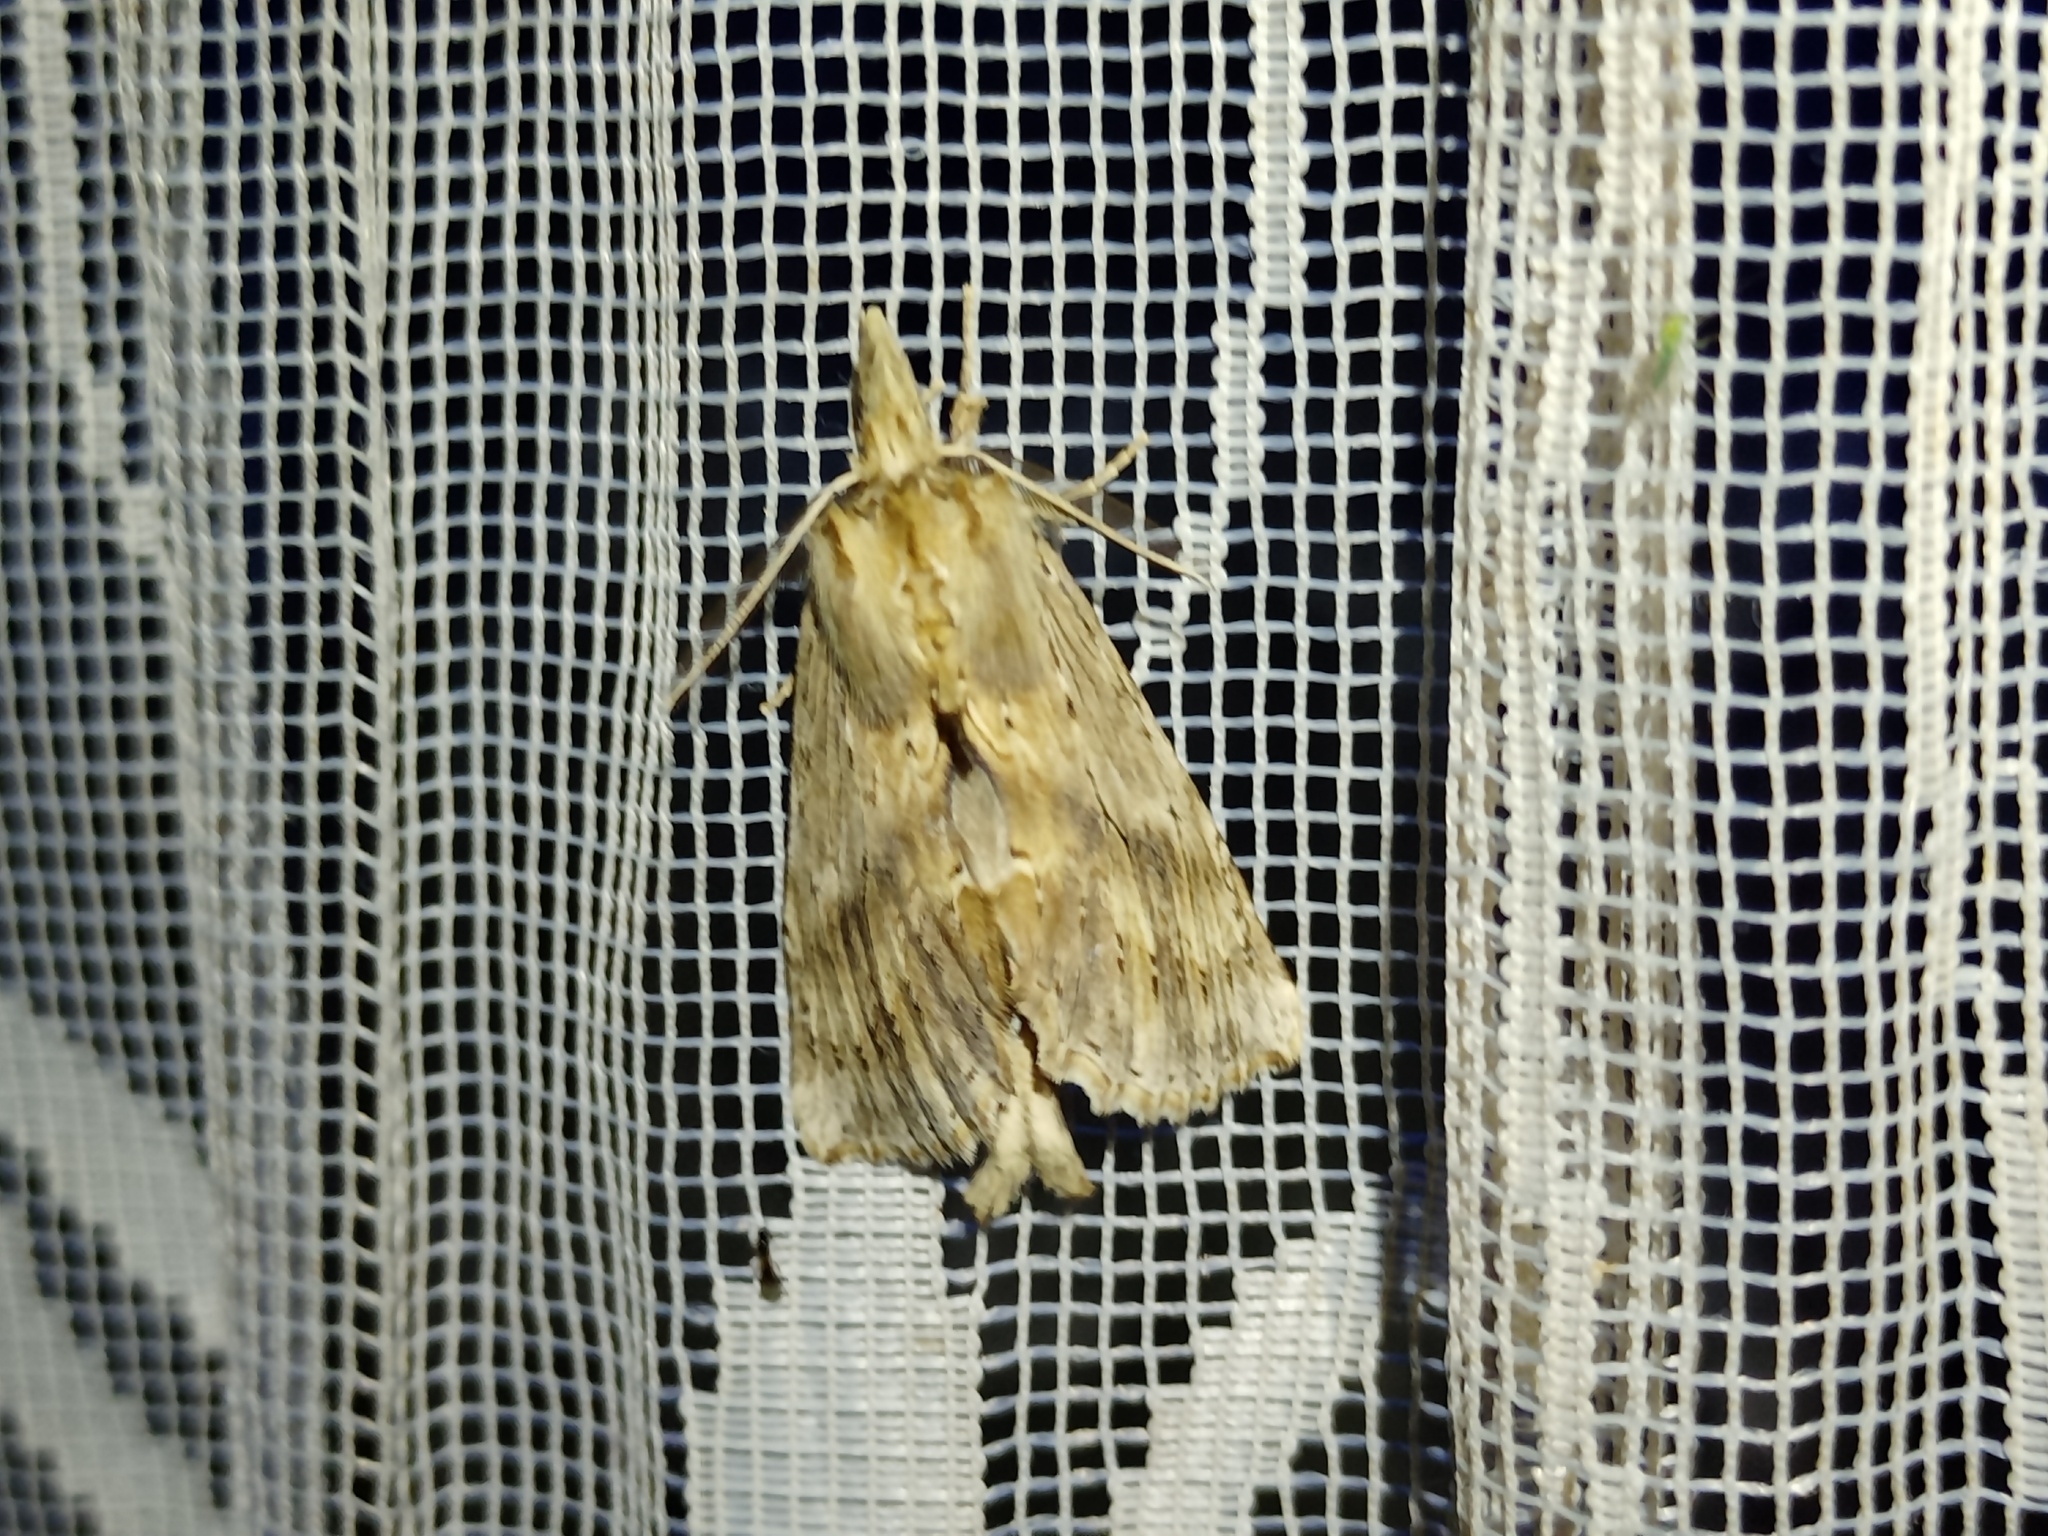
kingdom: Animalia
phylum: Arthropoda
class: Insecta
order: Lepidoptera
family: Notodontidae
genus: Pterostoma
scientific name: Pterostoma palpina
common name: Pale prominent
